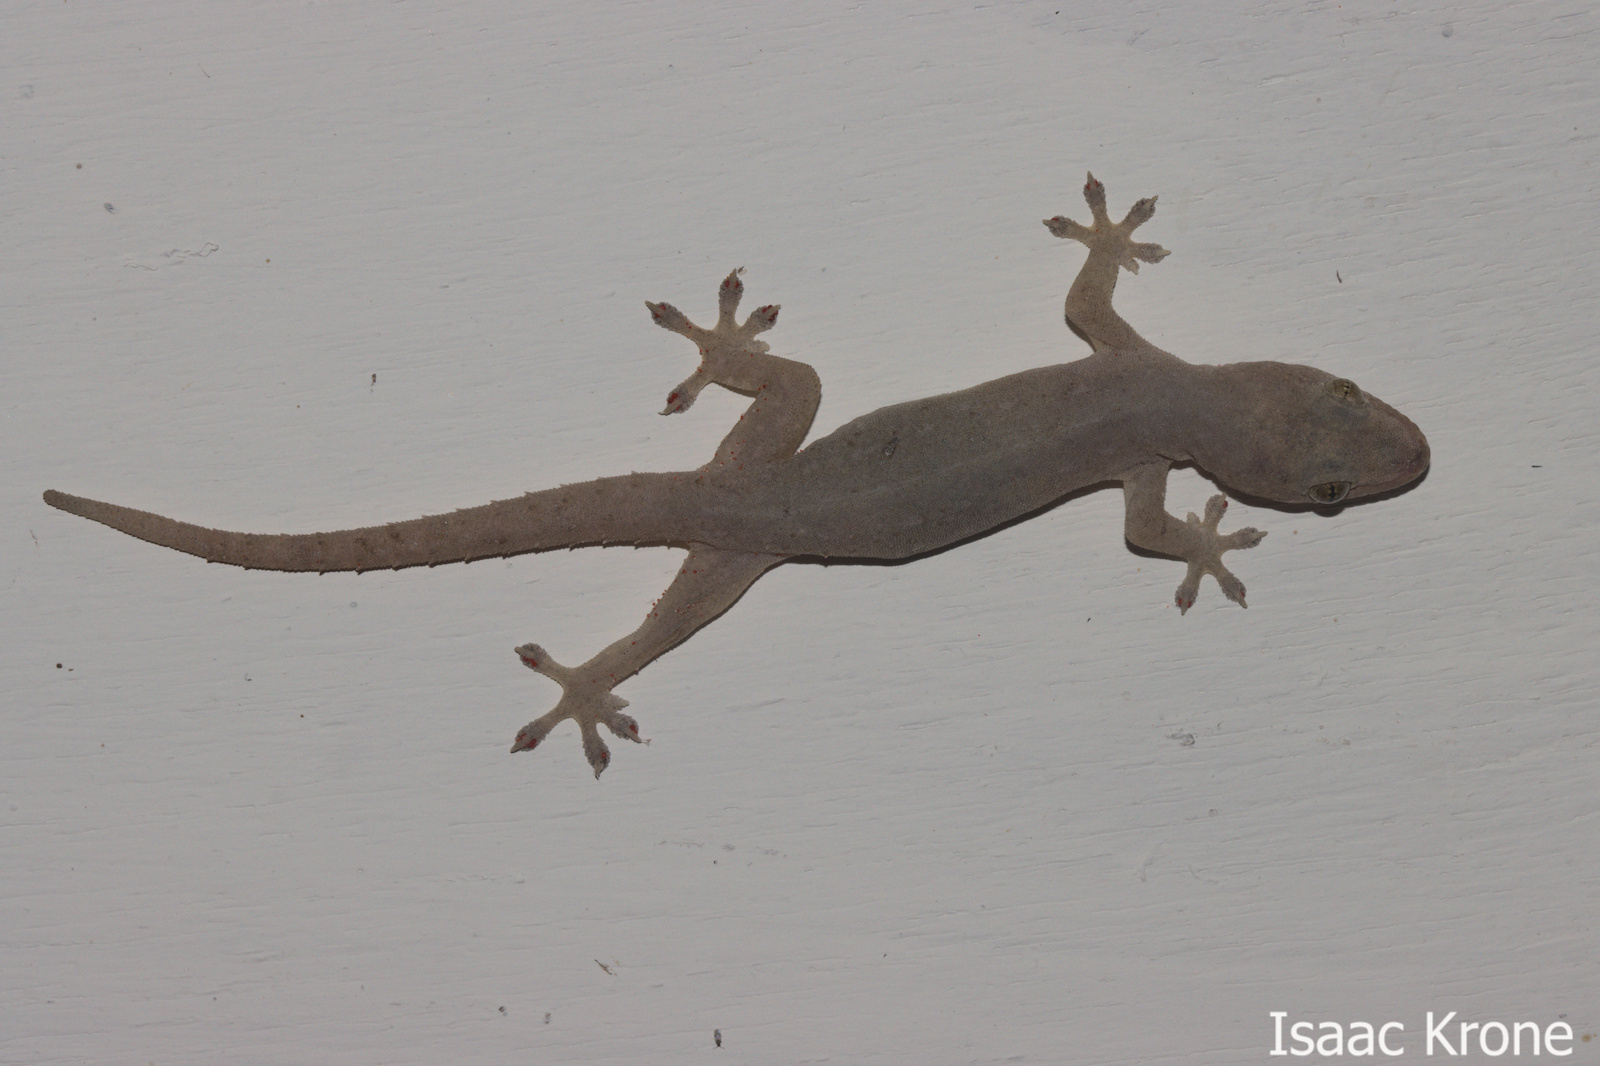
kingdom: Animalia
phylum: Chordata
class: Squamata
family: Gekkonidae
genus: Hemidactylus
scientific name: Hemidactylus frenatus
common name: Common house gecko
